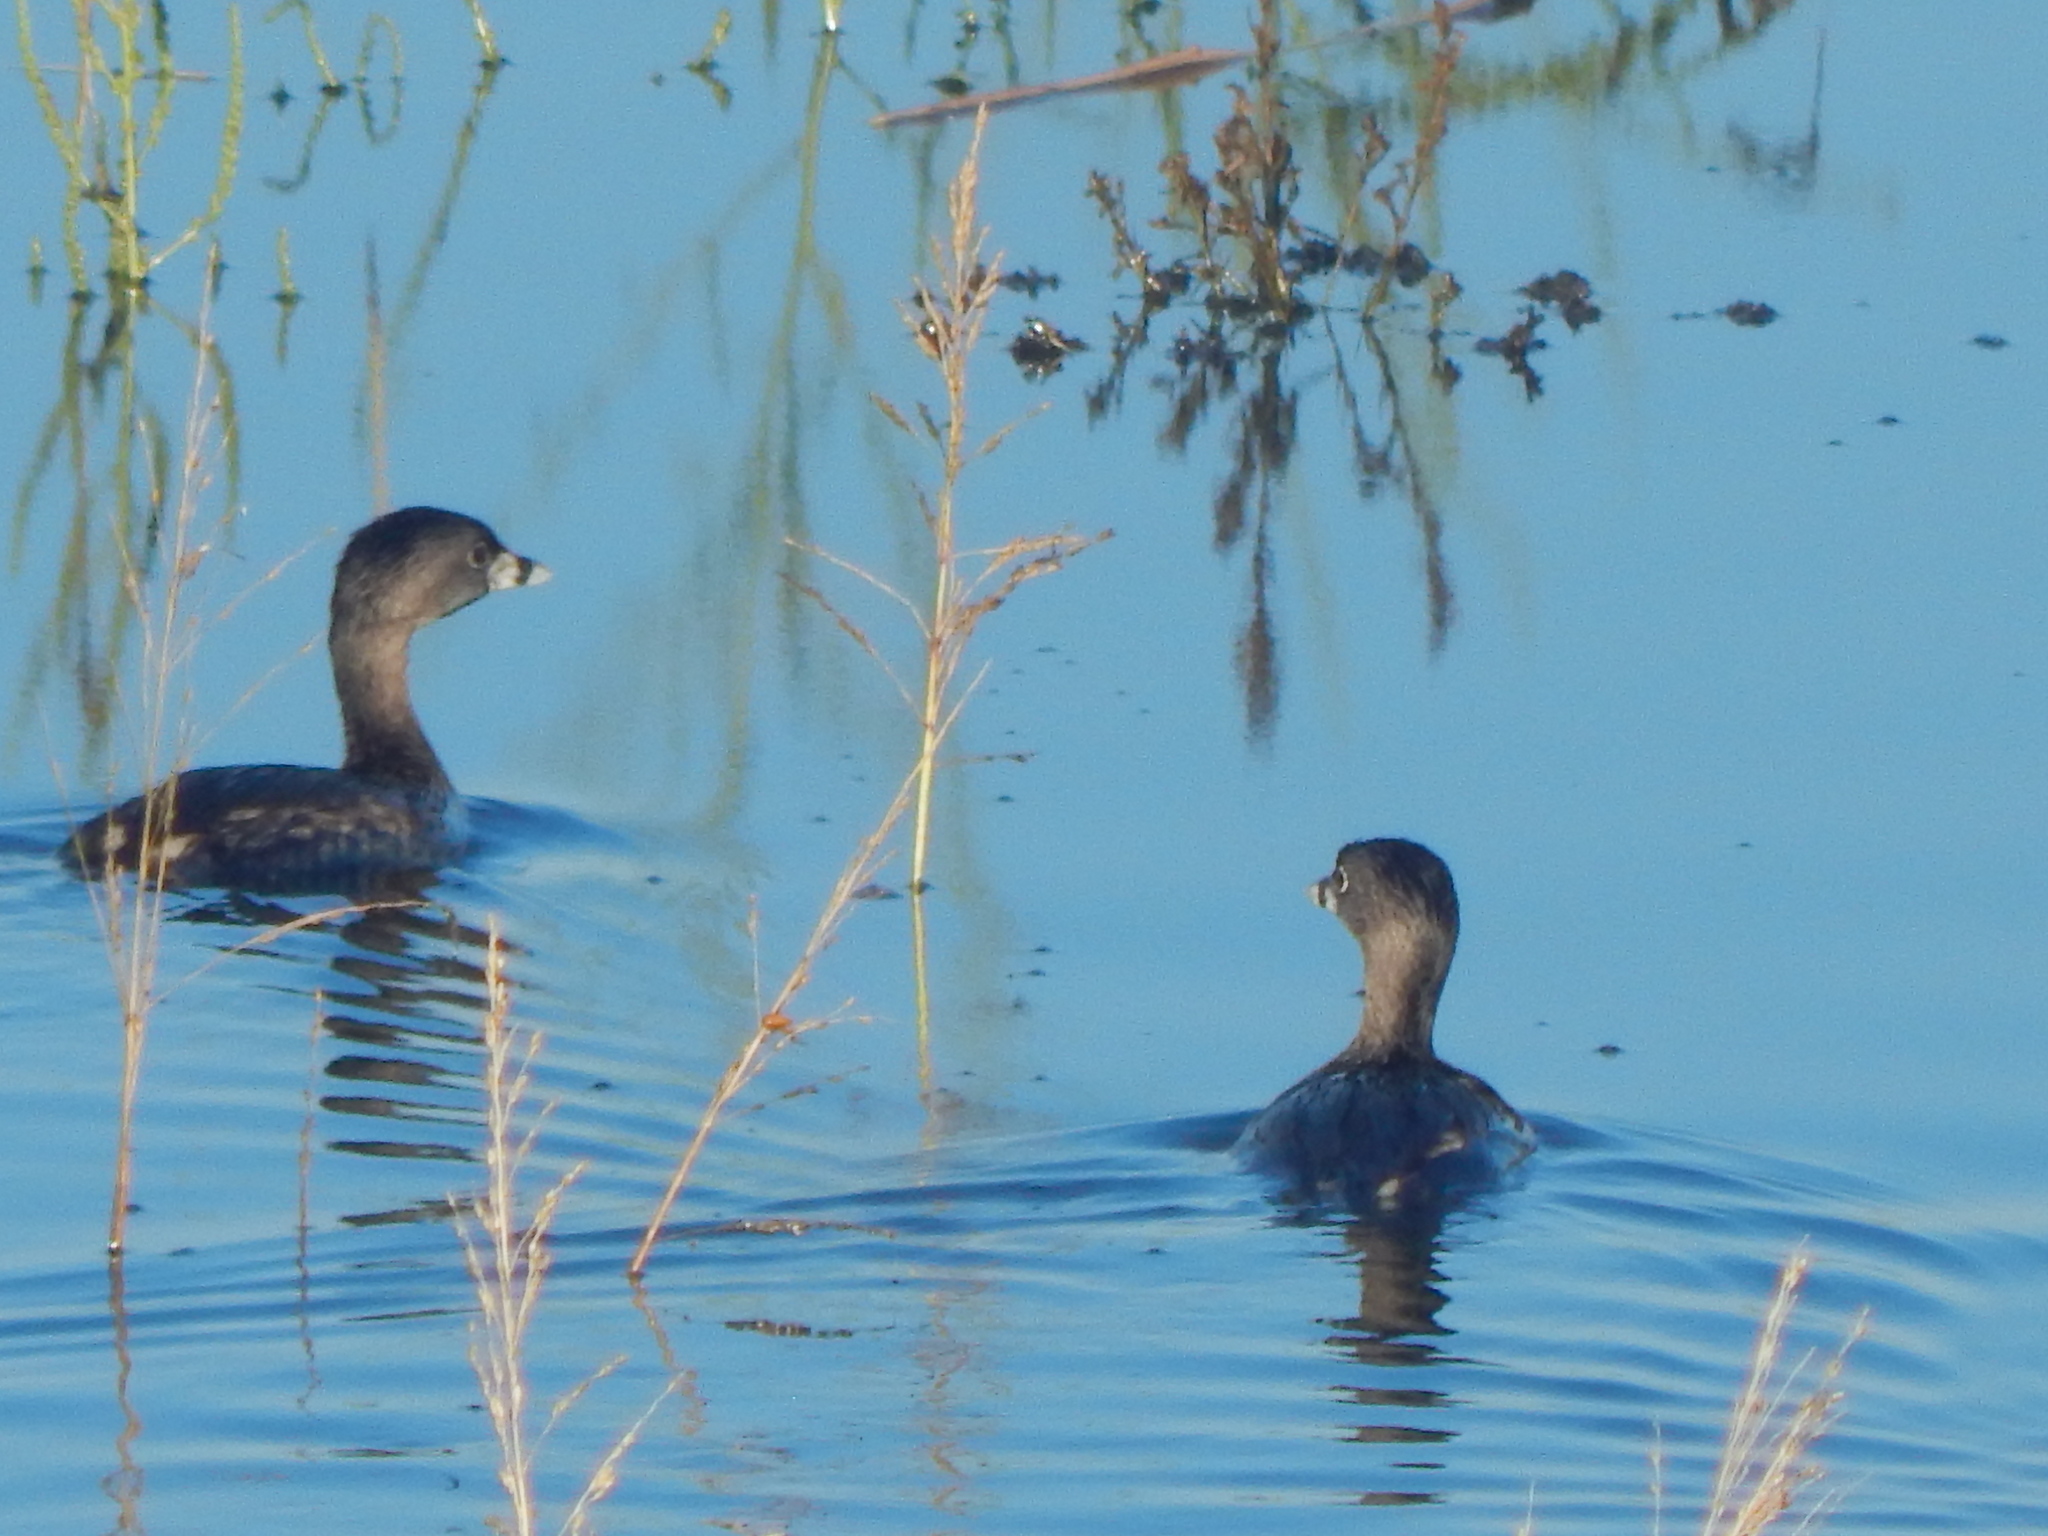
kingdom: Animalia
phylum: Chordata
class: Aves
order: Podicipediformes
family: Podicipedidae
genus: Podilymbus
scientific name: Podilymbus podiceps
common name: Pied-billed grebe
